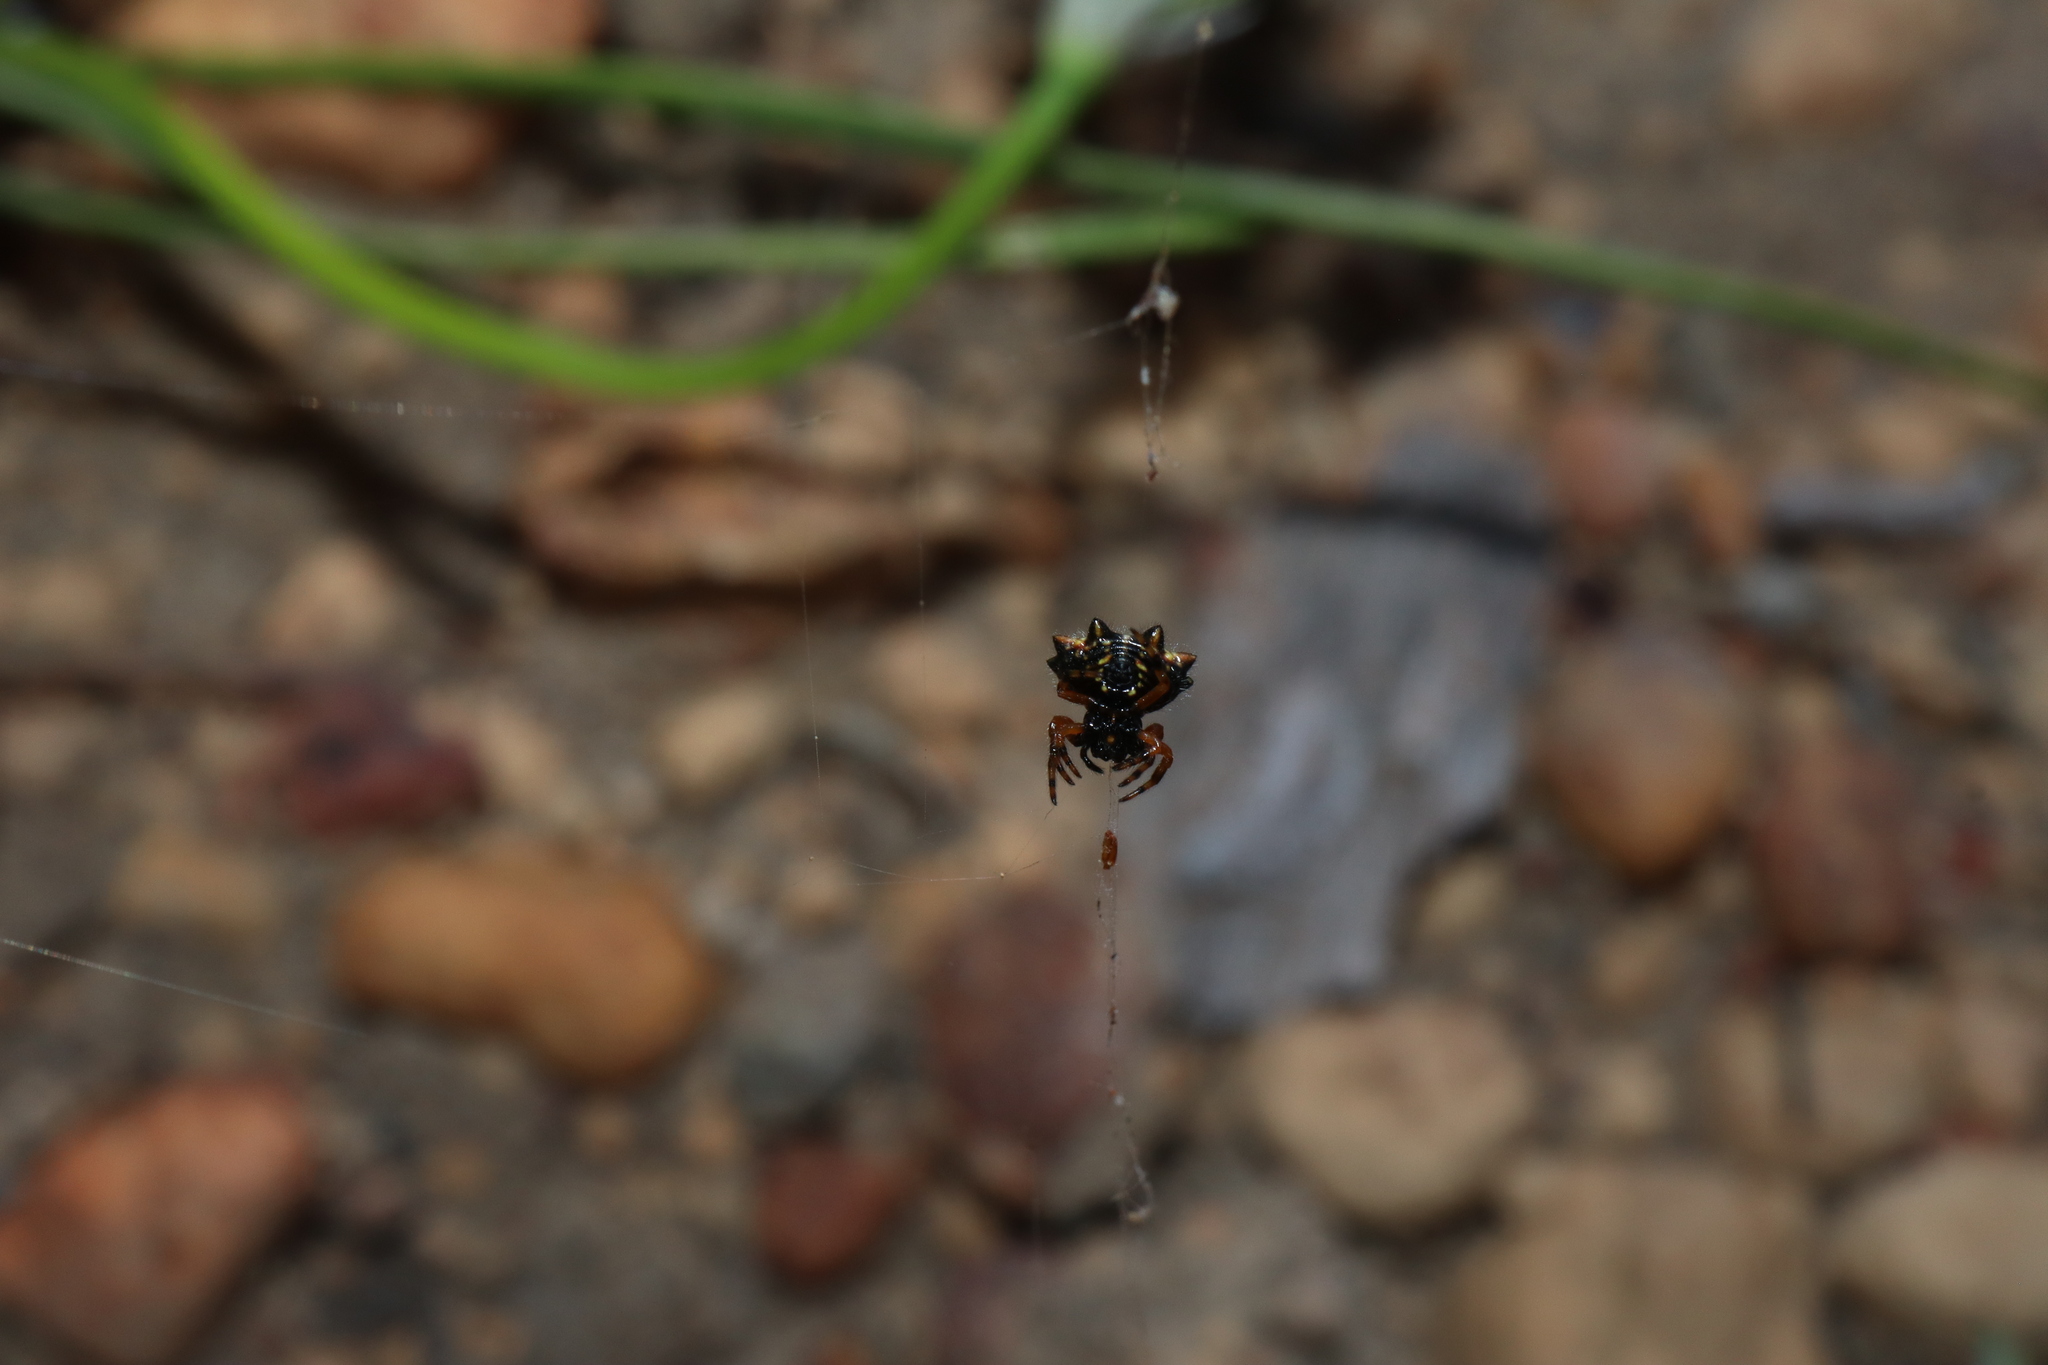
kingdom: Animalia
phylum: Arthropoda
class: Arachnida
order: Araneae
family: Araneidae
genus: Austracantha
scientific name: Austracantha minax
